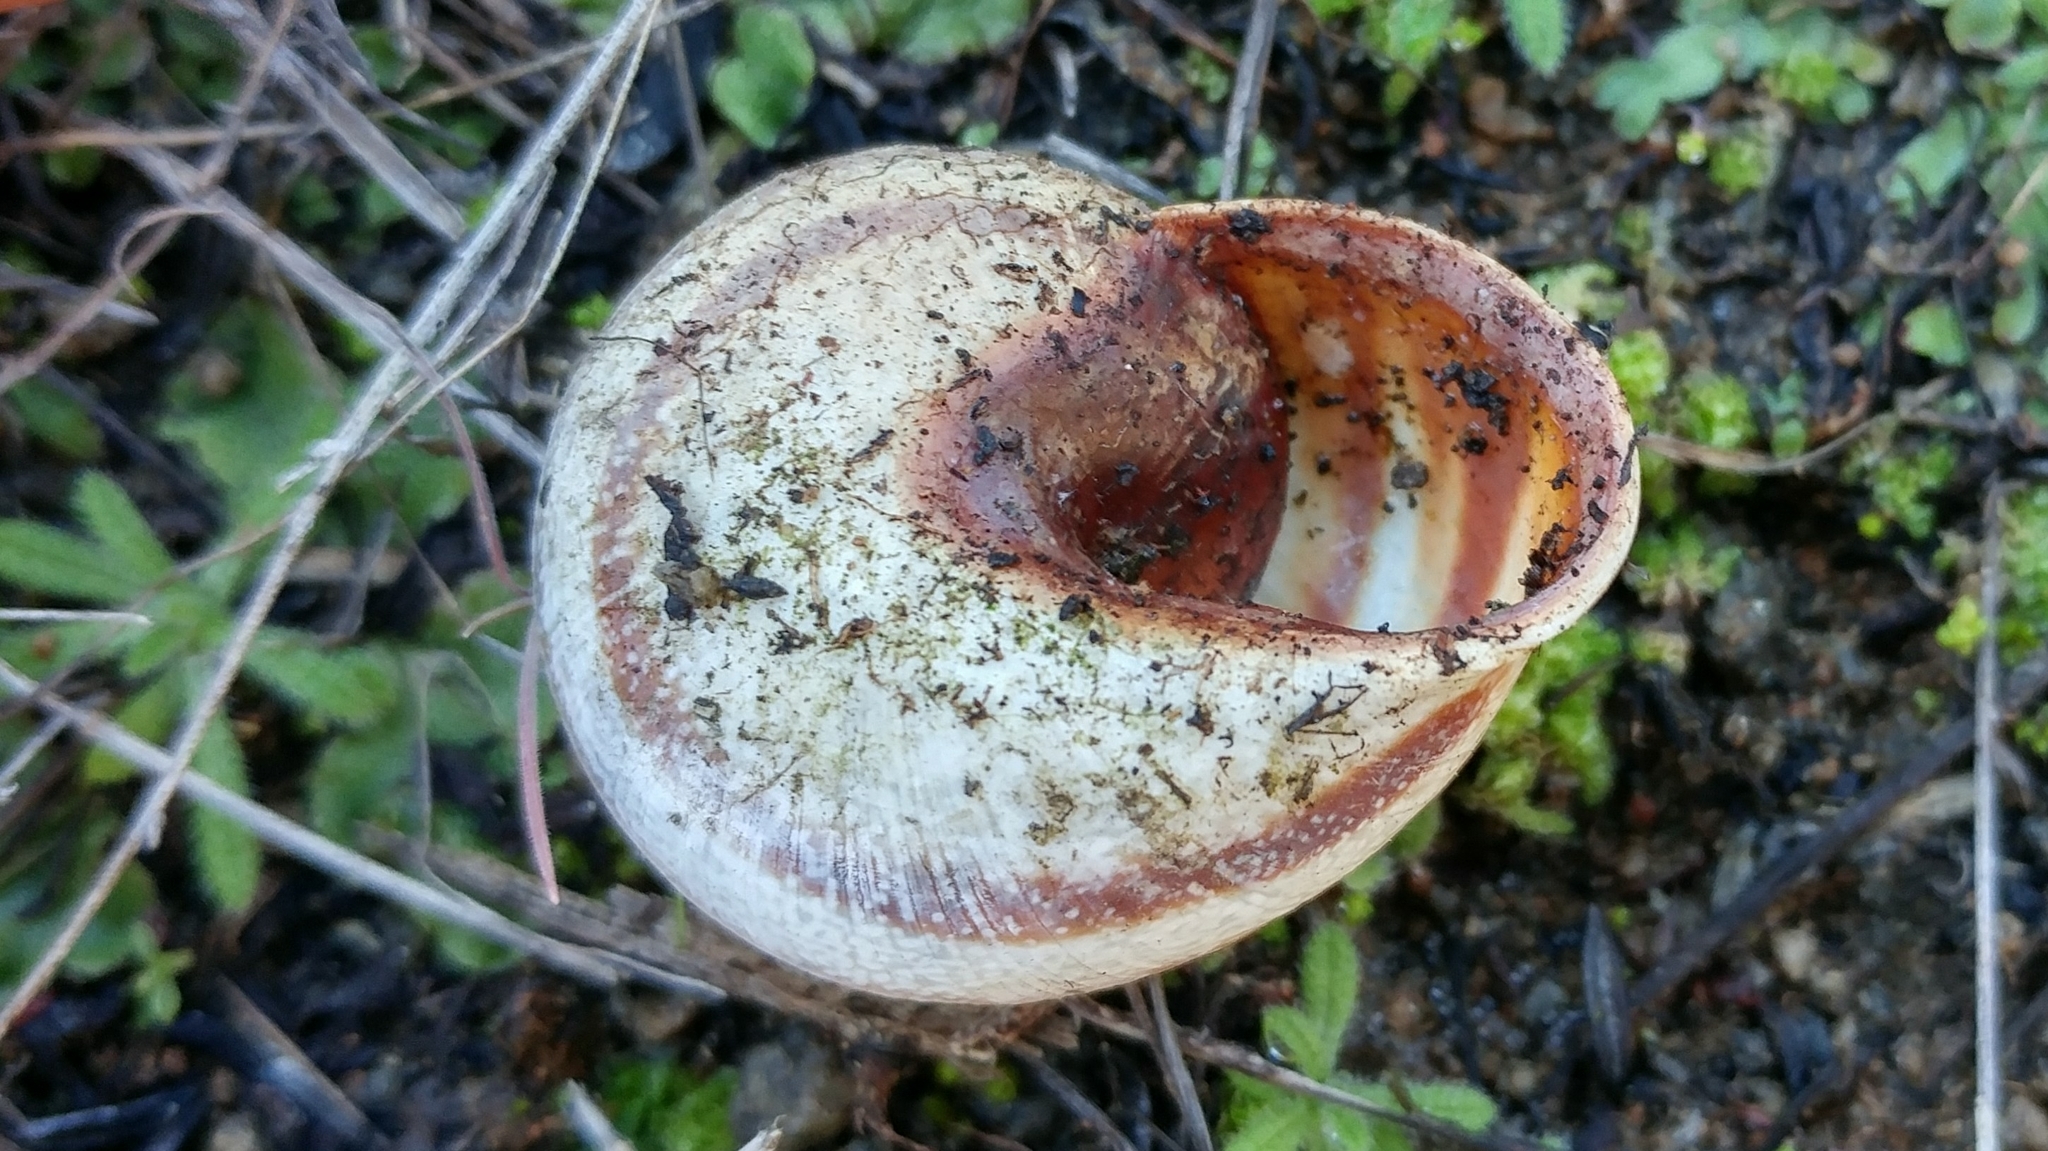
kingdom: Animalia
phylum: Mollusca
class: Gastropoda
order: Stylommatophora
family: Helicidae
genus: Otala
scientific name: Otala lactea
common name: Milk snail
